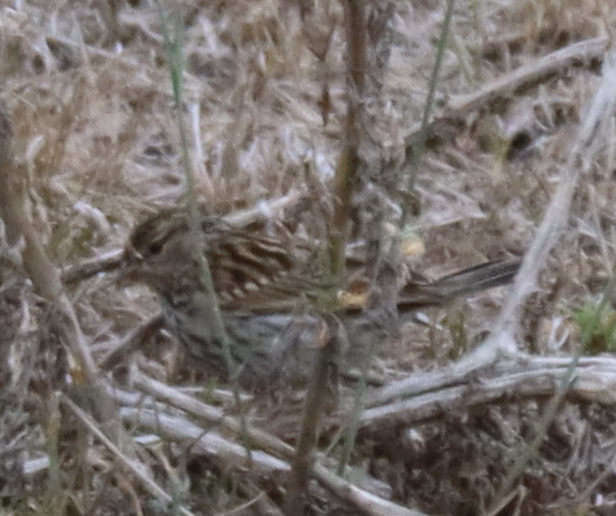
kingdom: Animalia
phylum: Chordata
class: Aves
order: Passeriformes
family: Passerellidae
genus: Spizella
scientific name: Spizella passerina
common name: Chipping sparrow
